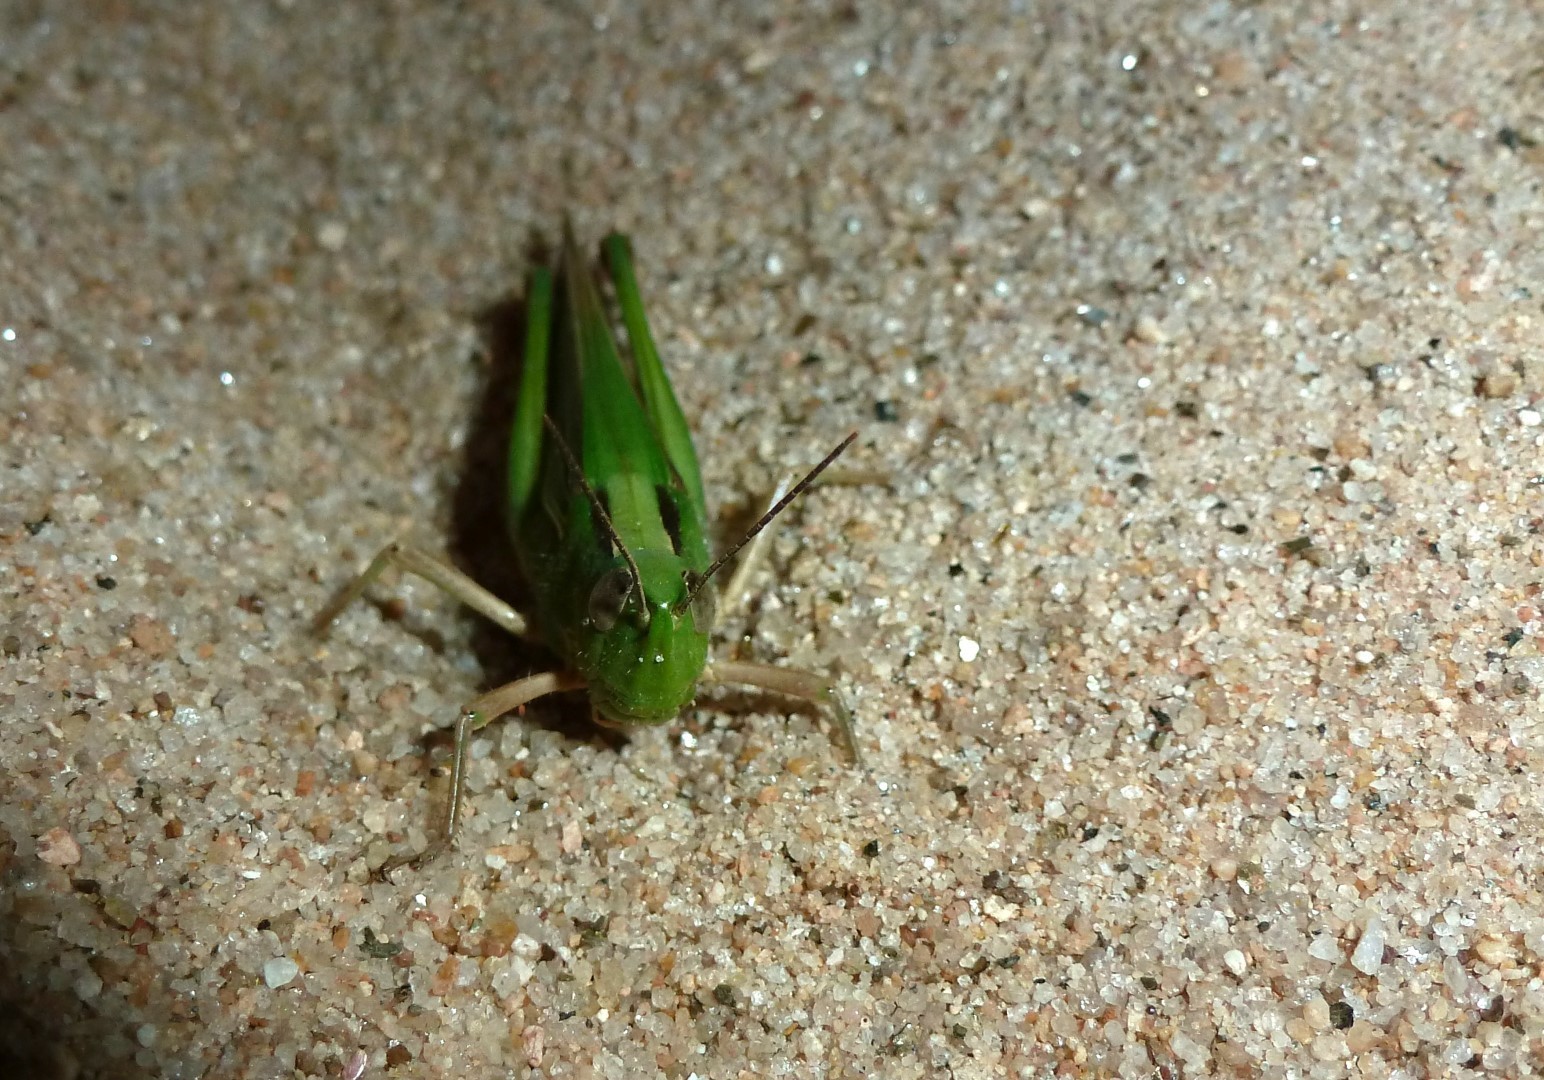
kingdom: Animalia
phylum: Arthropoda
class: Insecta
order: Orthoptera
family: Acrididae
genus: Paracinema
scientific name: Paracinema tricolor
